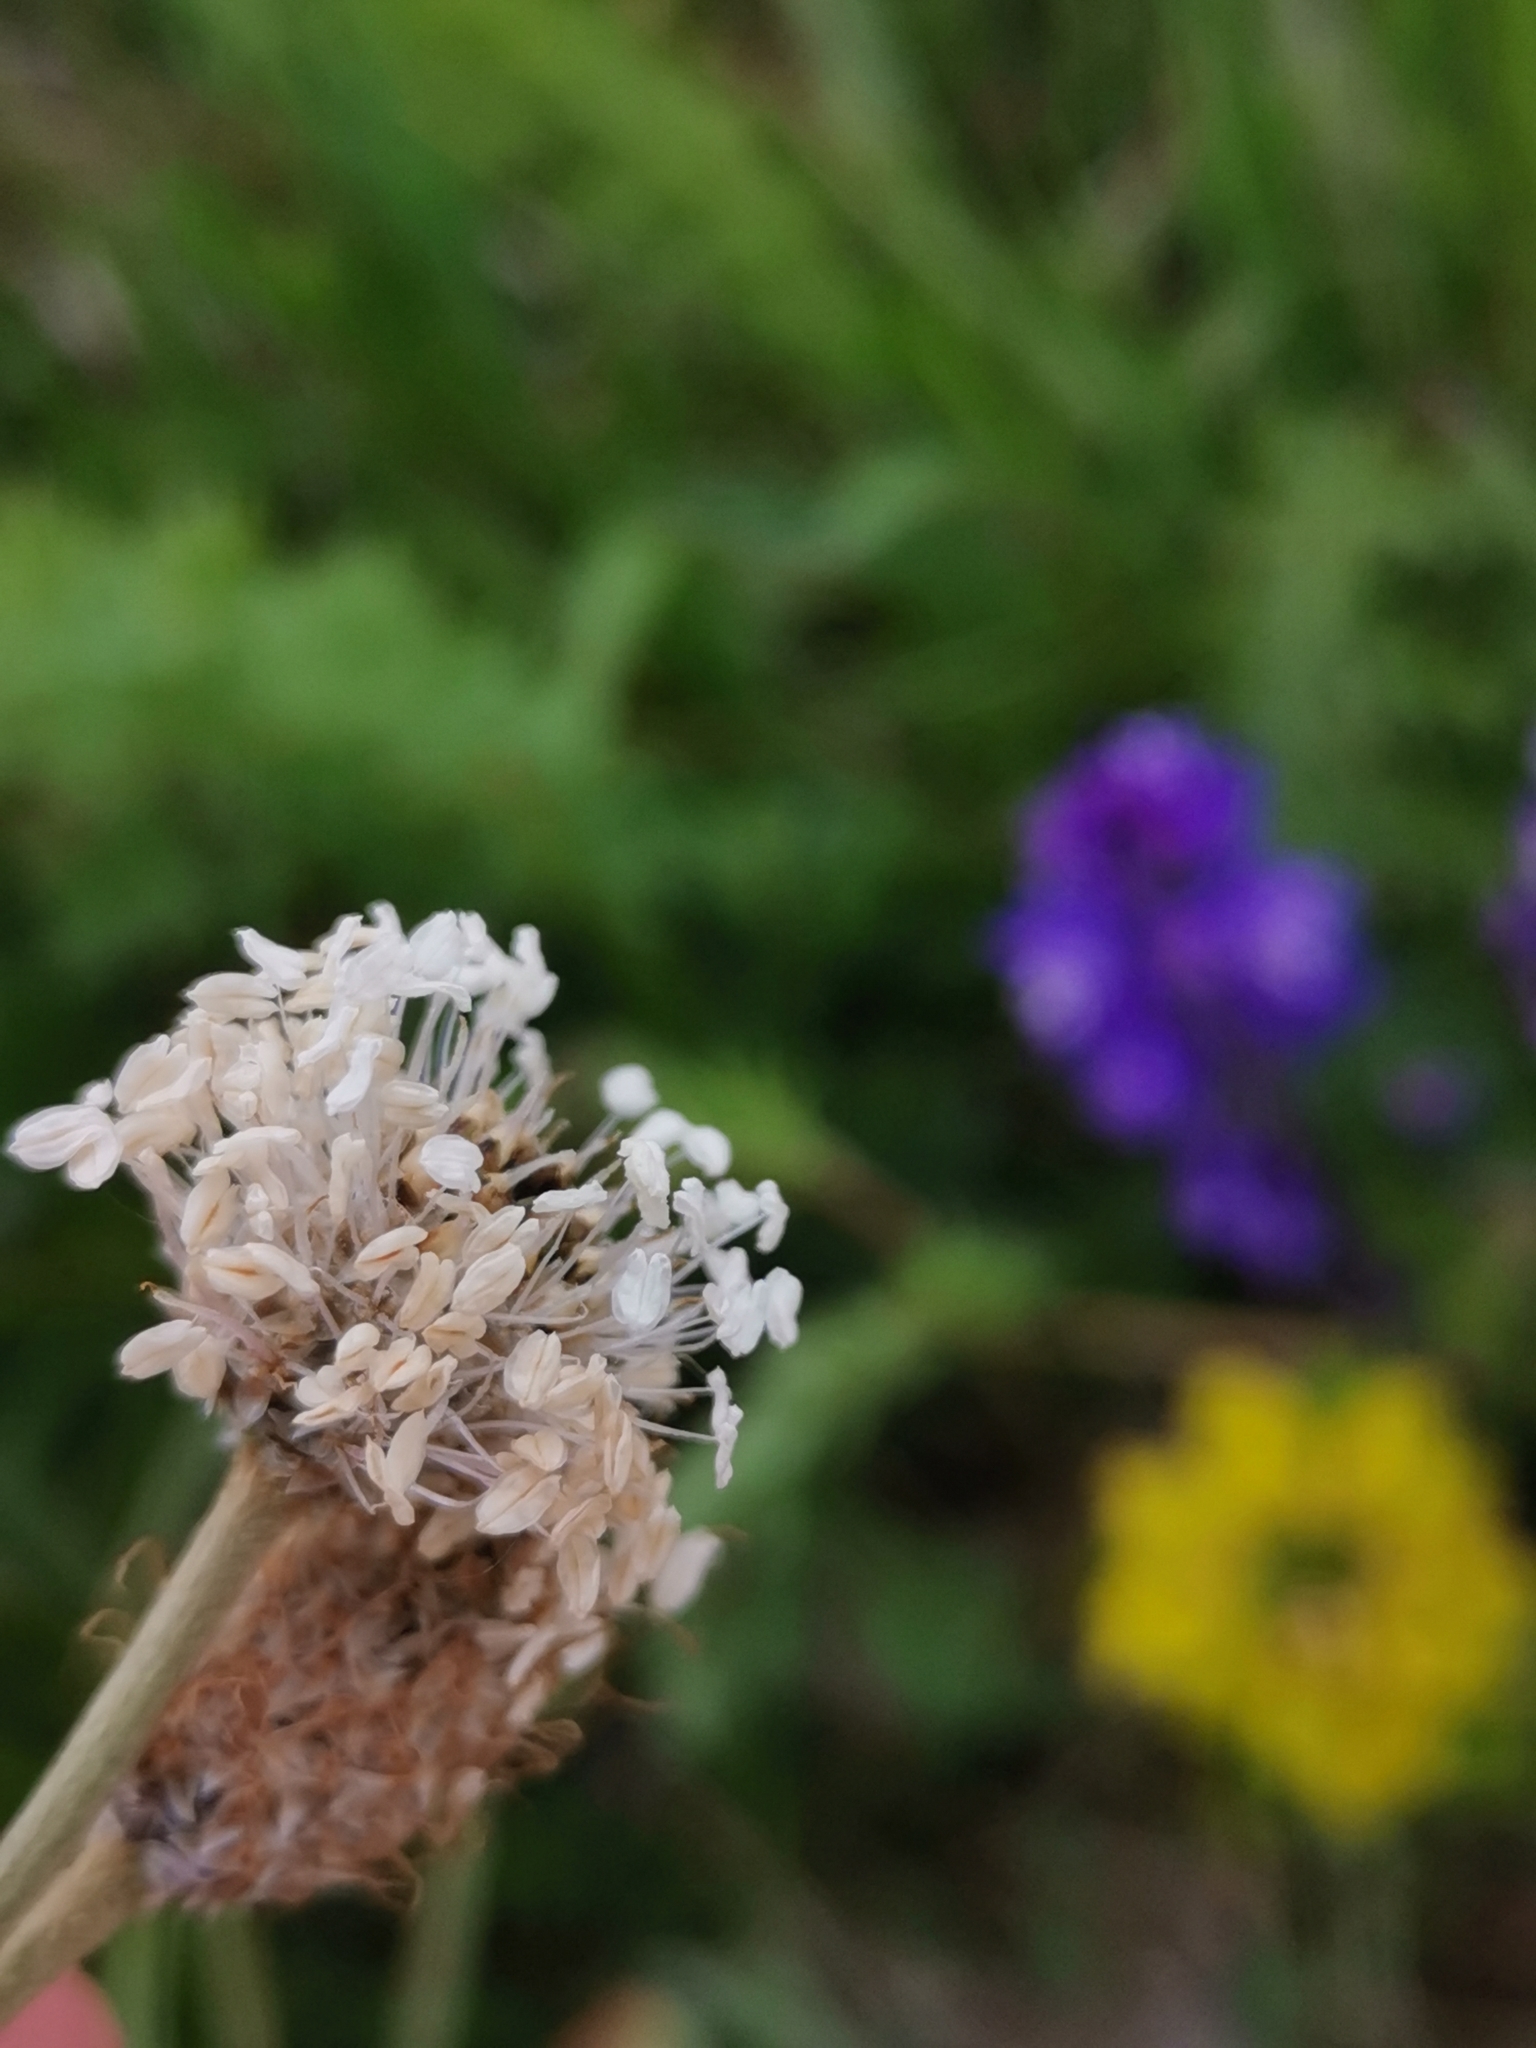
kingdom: Plantae
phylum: Tracheophyta
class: Magnoliopsida
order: Lamiales
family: Plantaginaceae
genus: Plantago
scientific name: Plantago argentea
